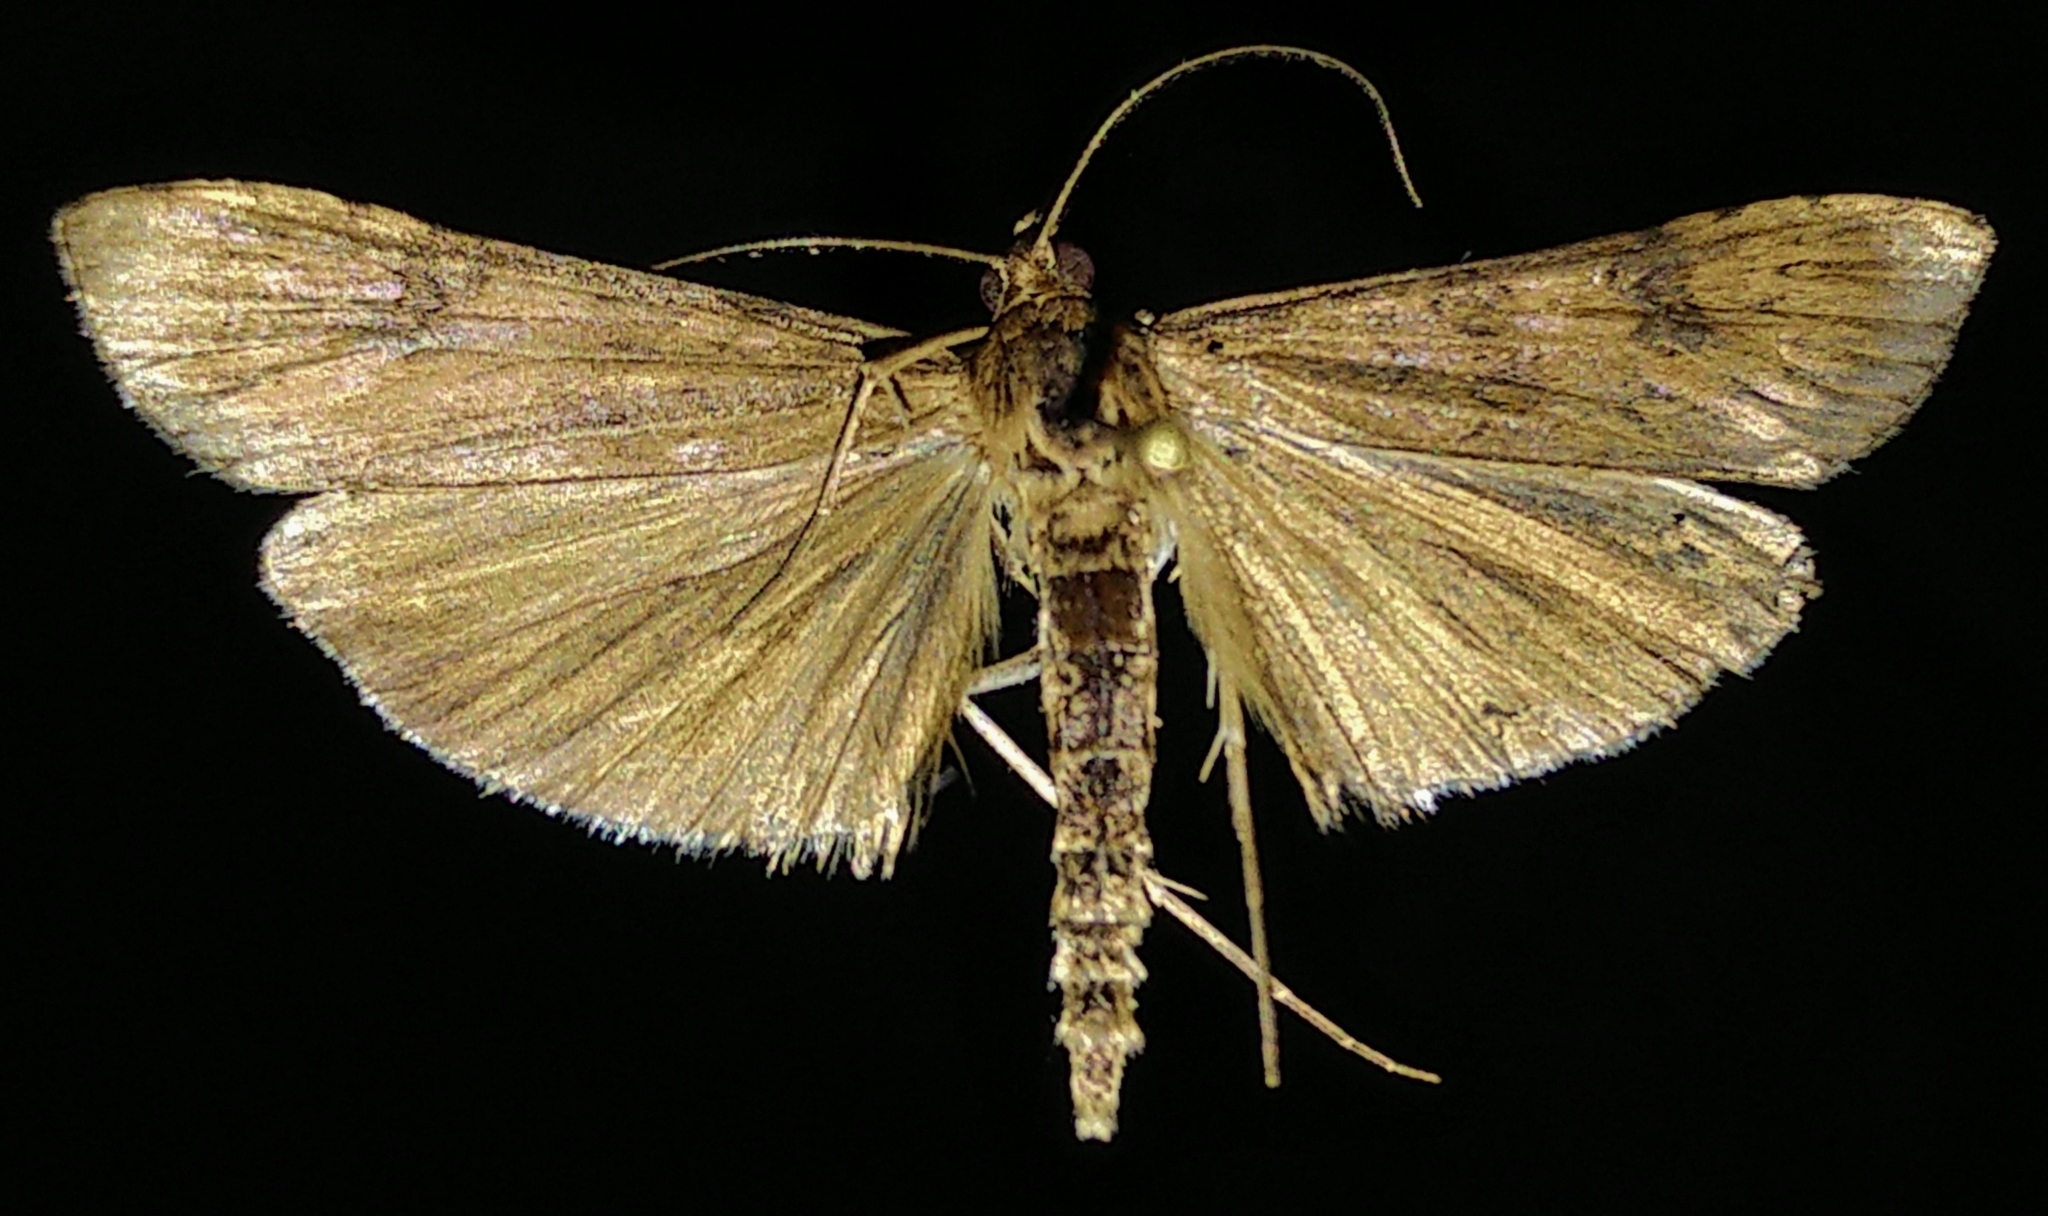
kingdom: Animalia
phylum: Arthropoda
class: Insecta
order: Lepidoptera
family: Crambidae
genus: Nomophila
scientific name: Nomophila nearctica
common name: American rush veneer
